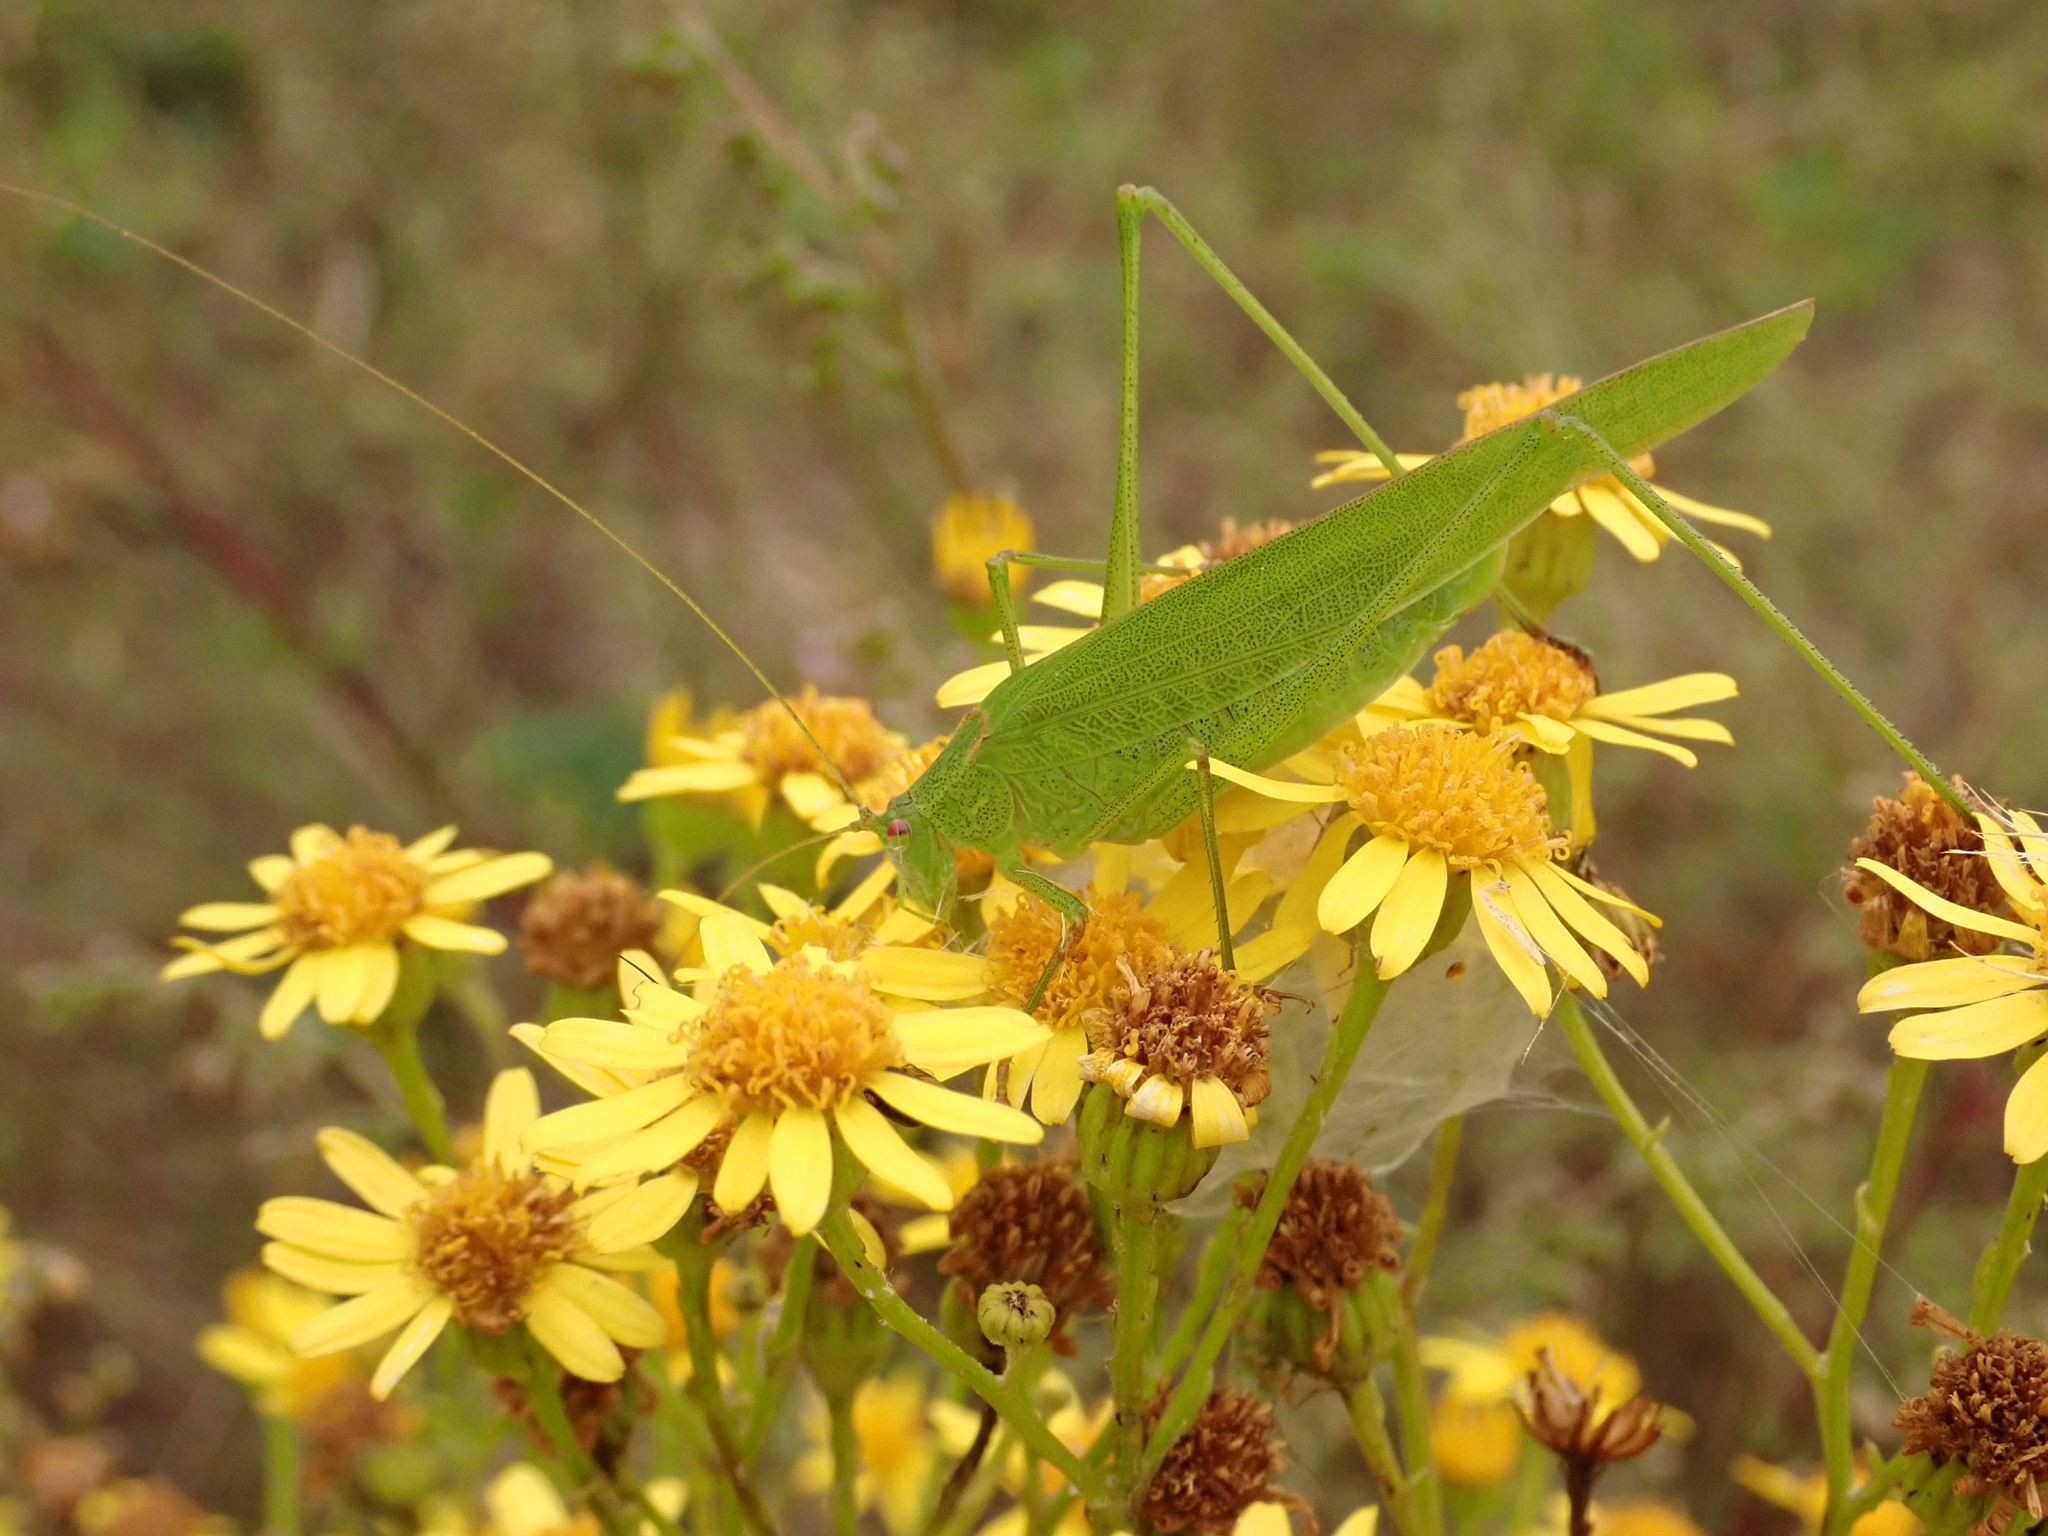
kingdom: Animalia
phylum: Arthropoda
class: Insecta
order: Orthoptera
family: Tettigoniidae
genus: Phaneroptera
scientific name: Phaneroptera falcata
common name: Sickle-bearing bush-cricket
